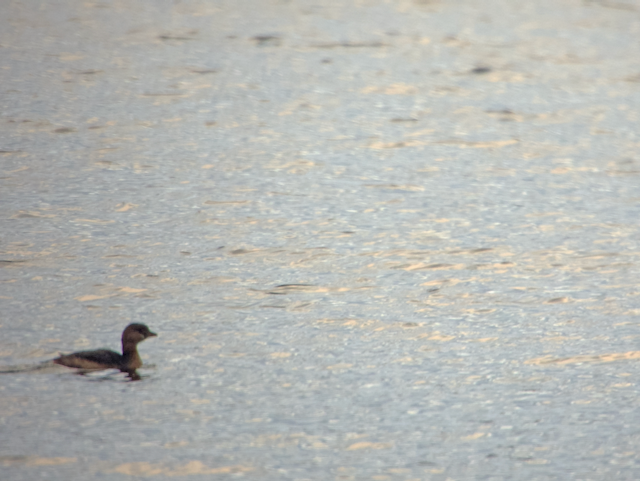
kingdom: Animalia
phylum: Chordata
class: Aves
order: Podicipediformes
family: Podicipedidae
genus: Podilymbus
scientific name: Podilymbus podiceps
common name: Pied-billed grebe
